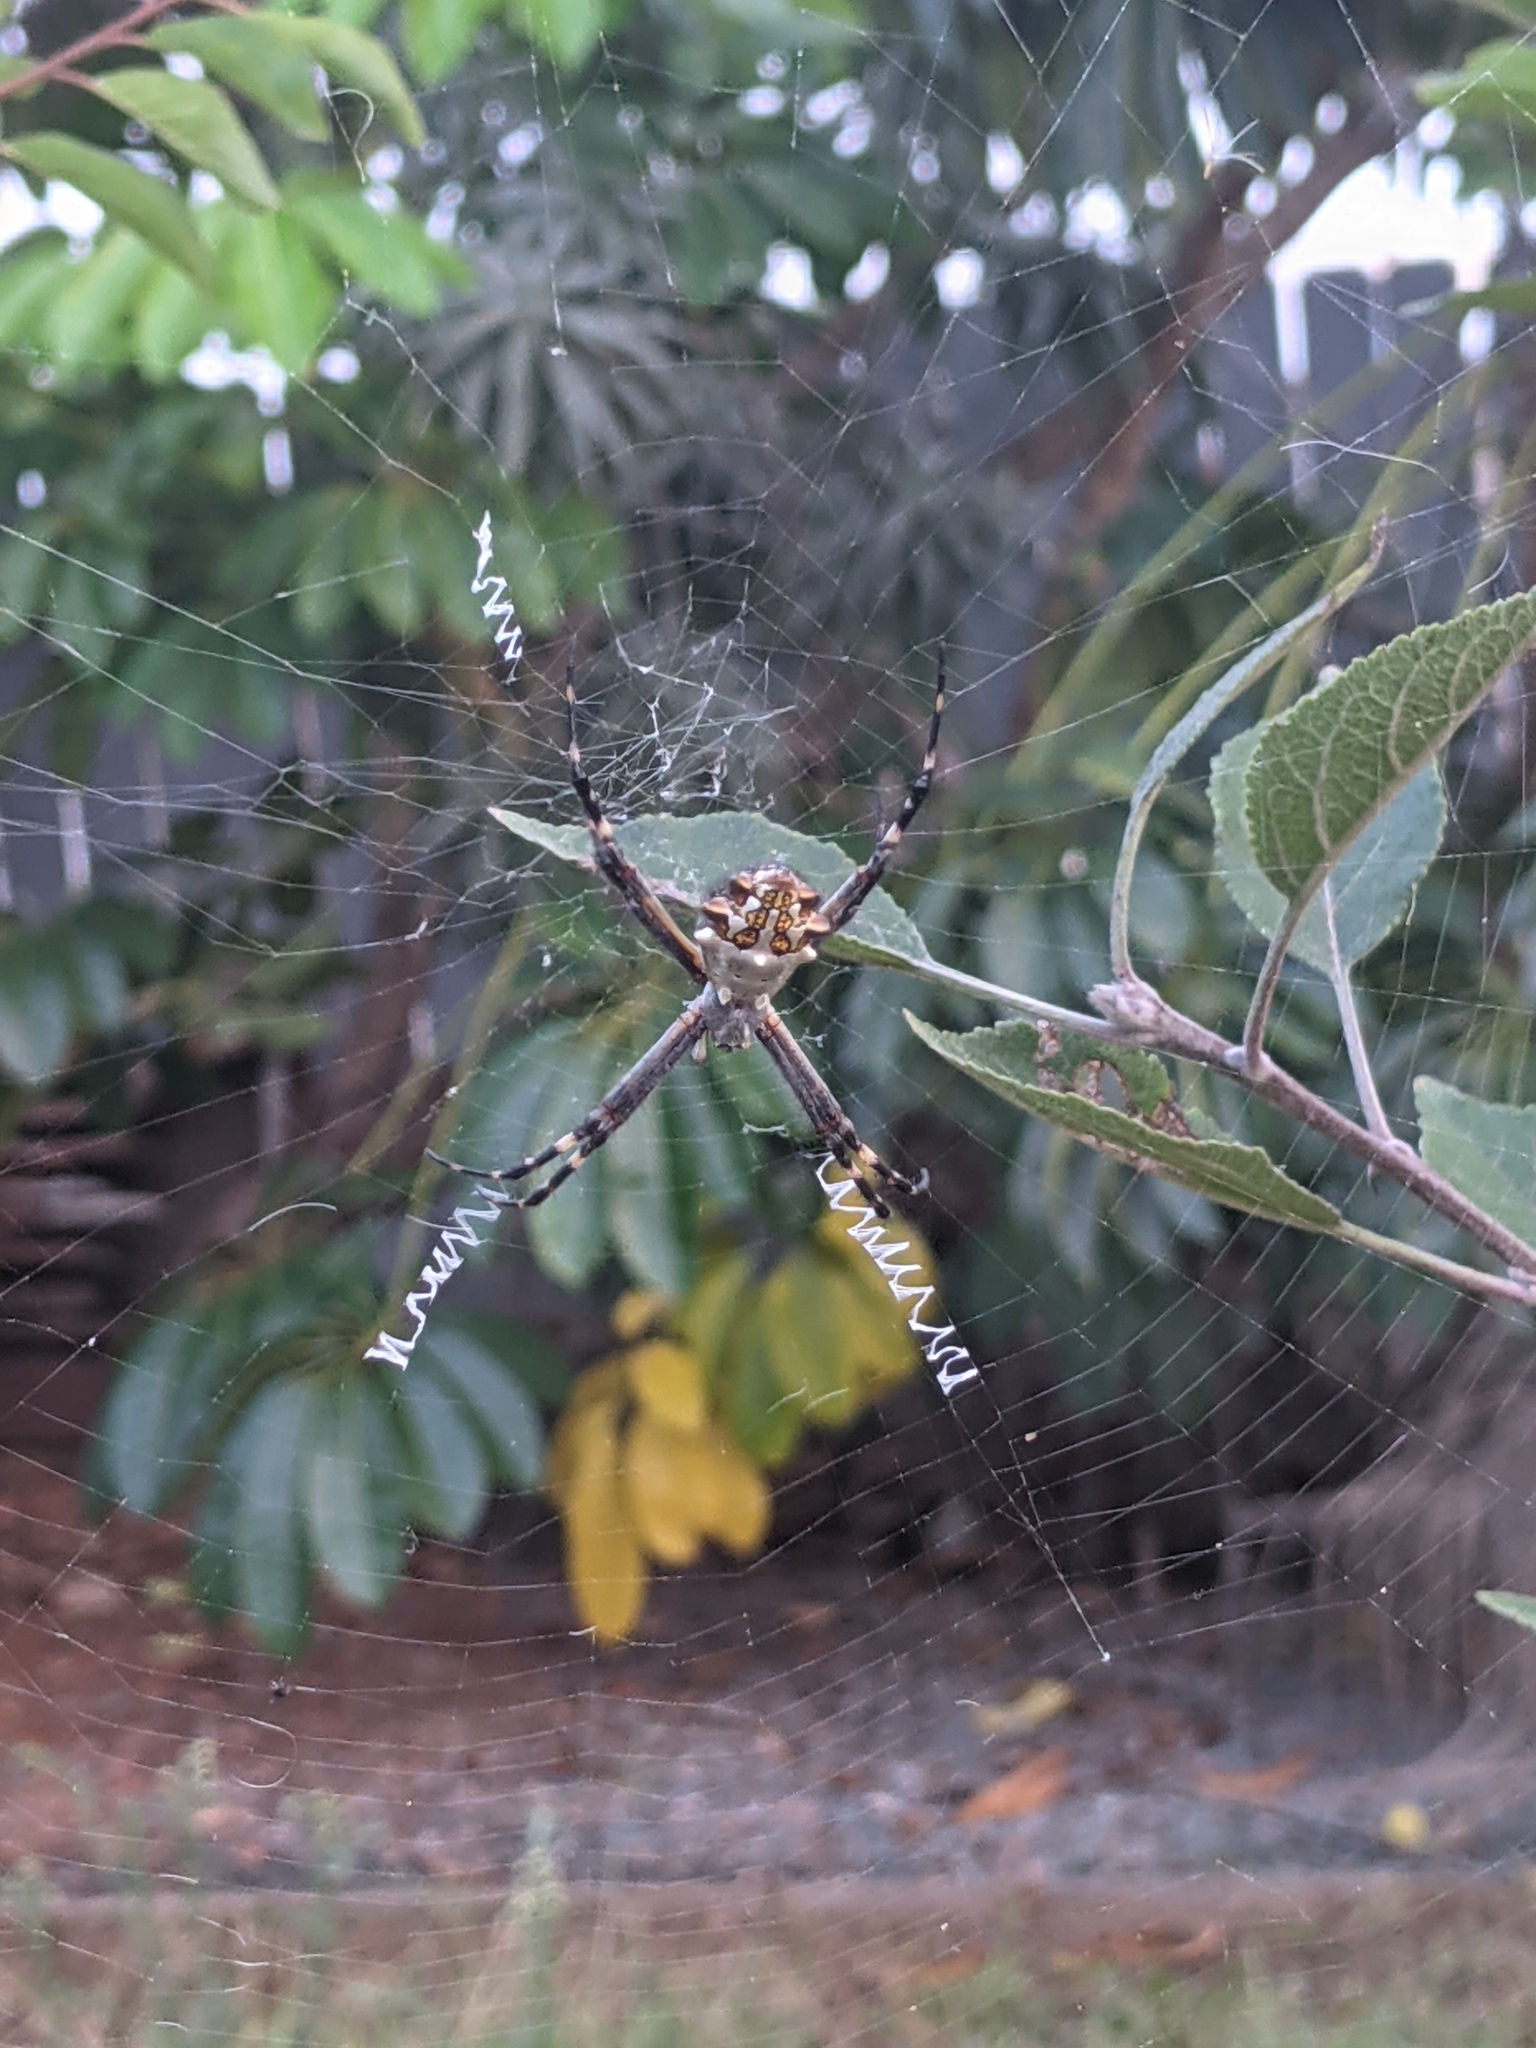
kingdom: Animalia
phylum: Arthropoda
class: Arachnida
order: Araneae
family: Araneidae
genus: Argiope
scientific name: Argiope argentata
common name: Orb weavers
